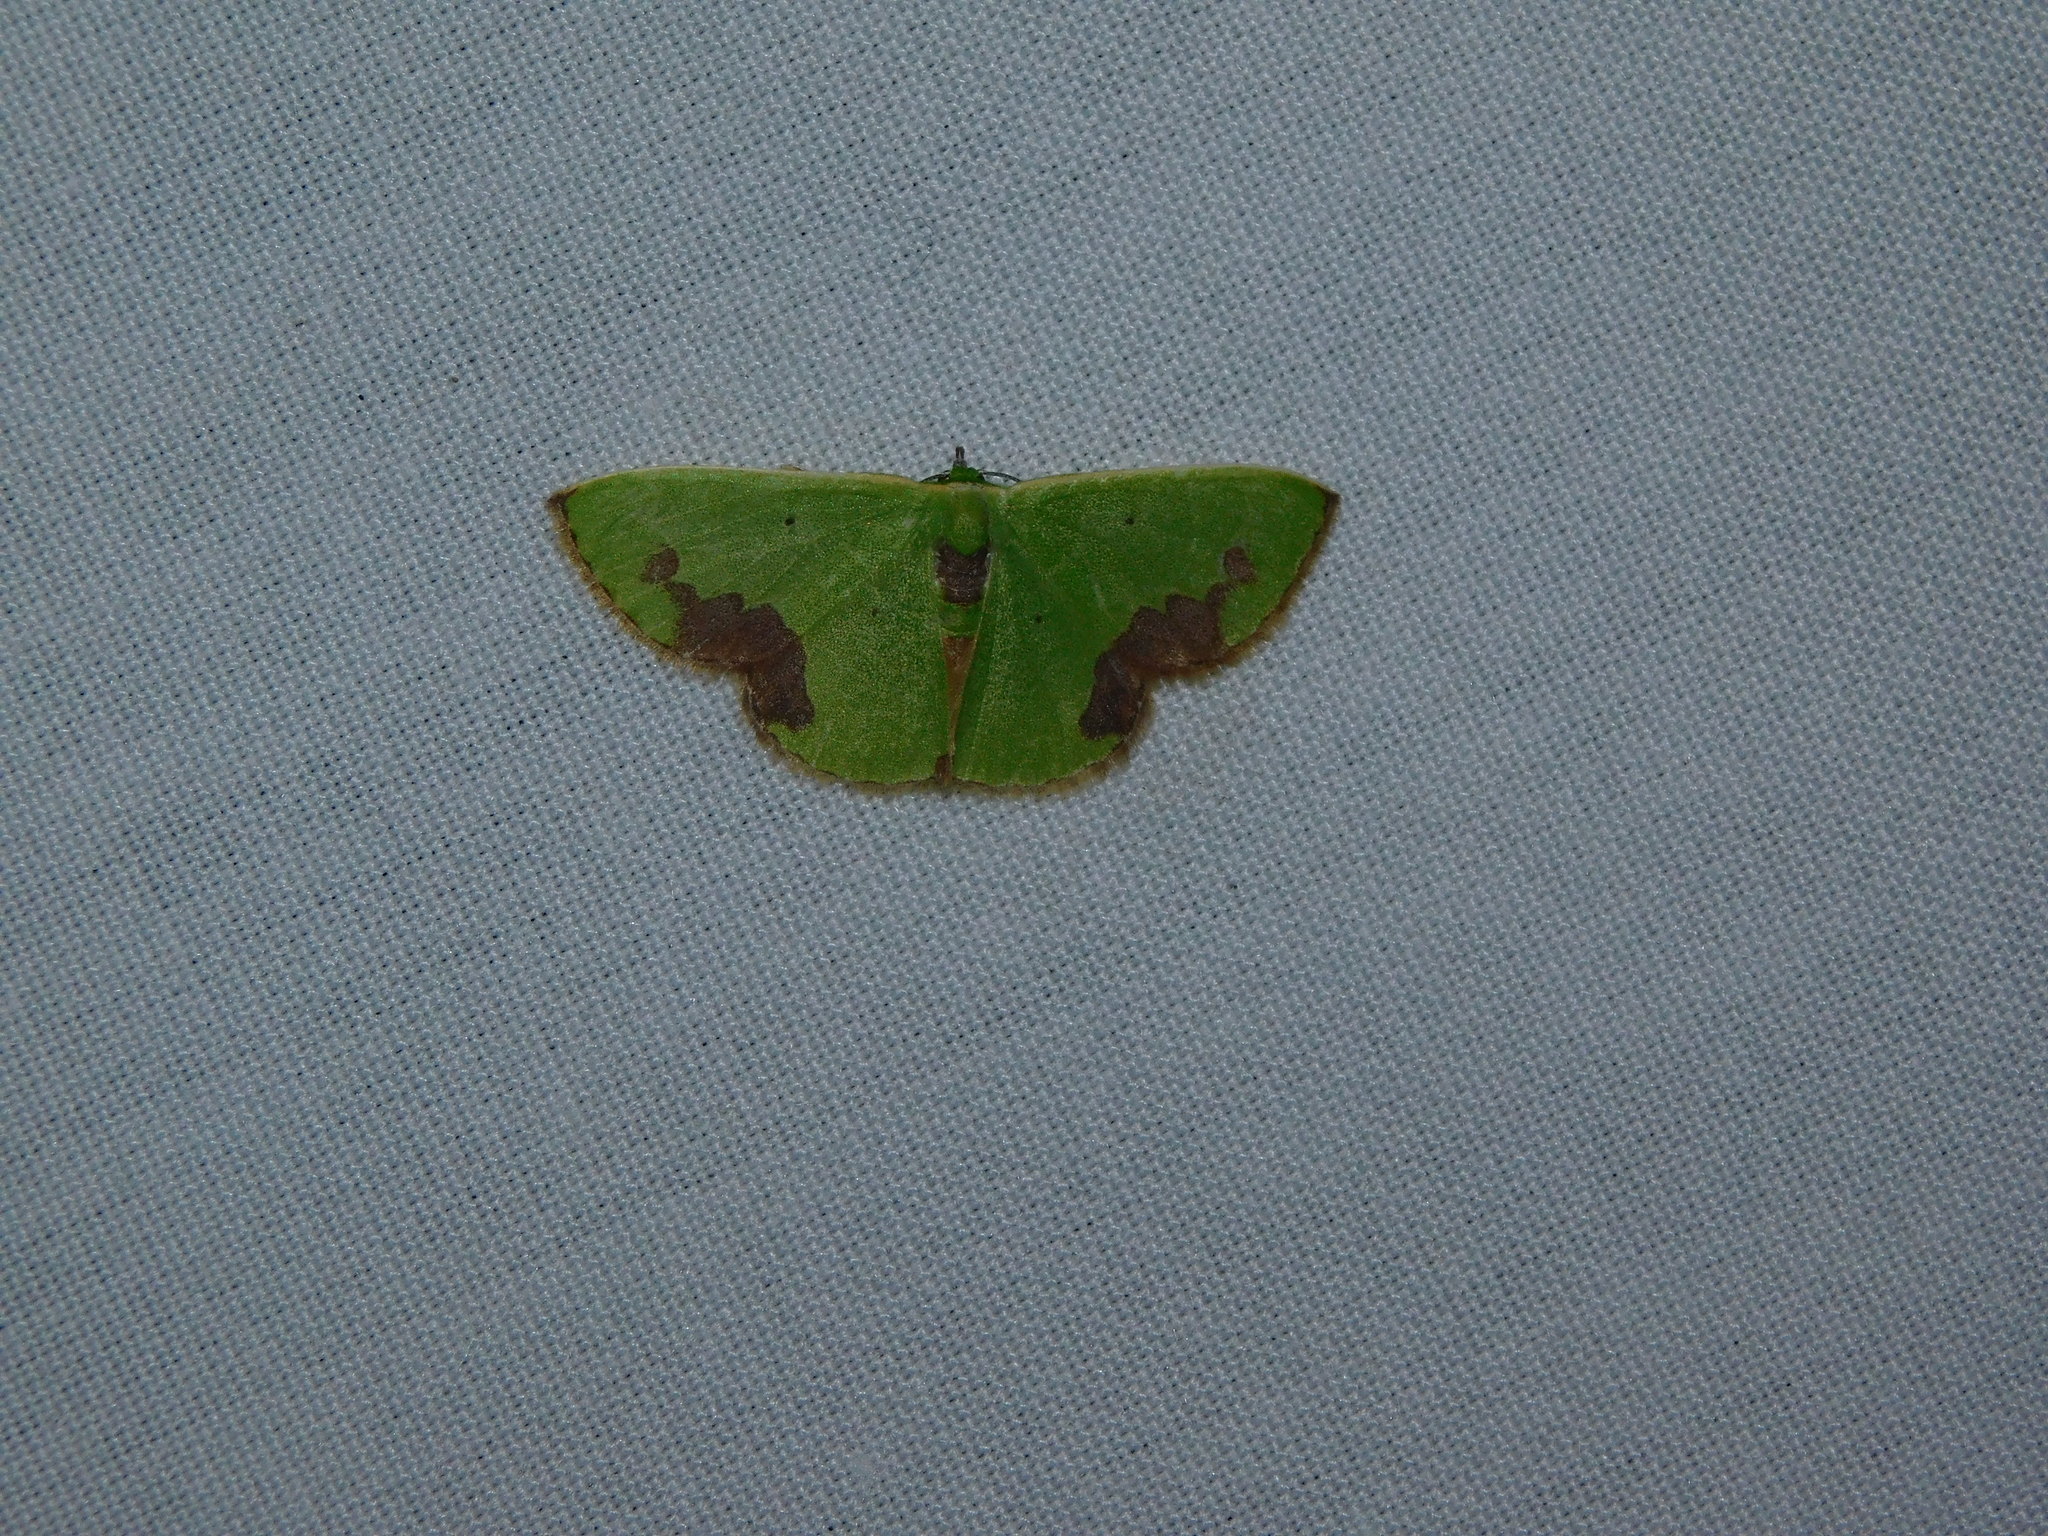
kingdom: Animalia
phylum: Arthropoda
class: Insecta
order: Lepidoptera
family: Geometridae
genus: Comibaena
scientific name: Comibaena attenuata
